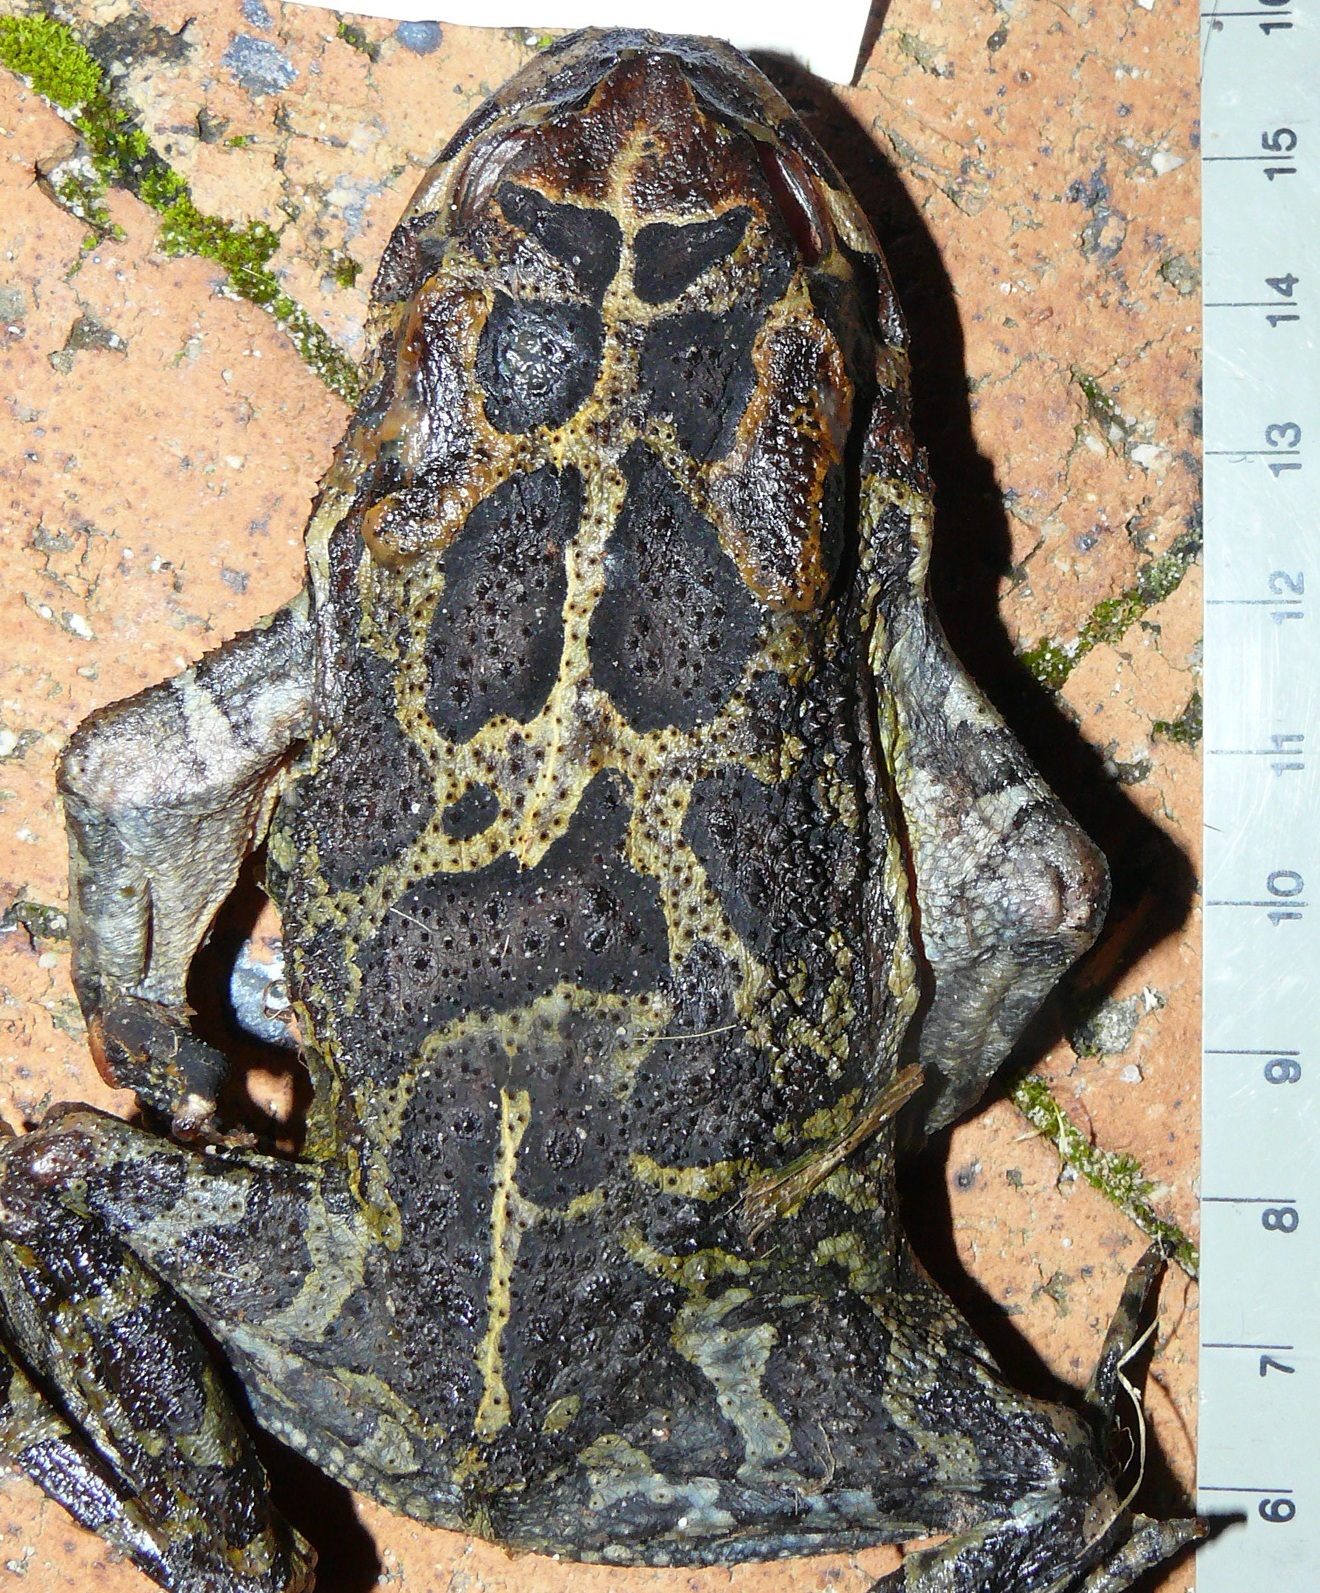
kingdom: Animalia
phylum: Chordata
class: Amphibia
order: Anura
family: Bufonidae
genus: Sclerophrys
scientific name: Sclerophrys pantherina
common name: Panther toad
